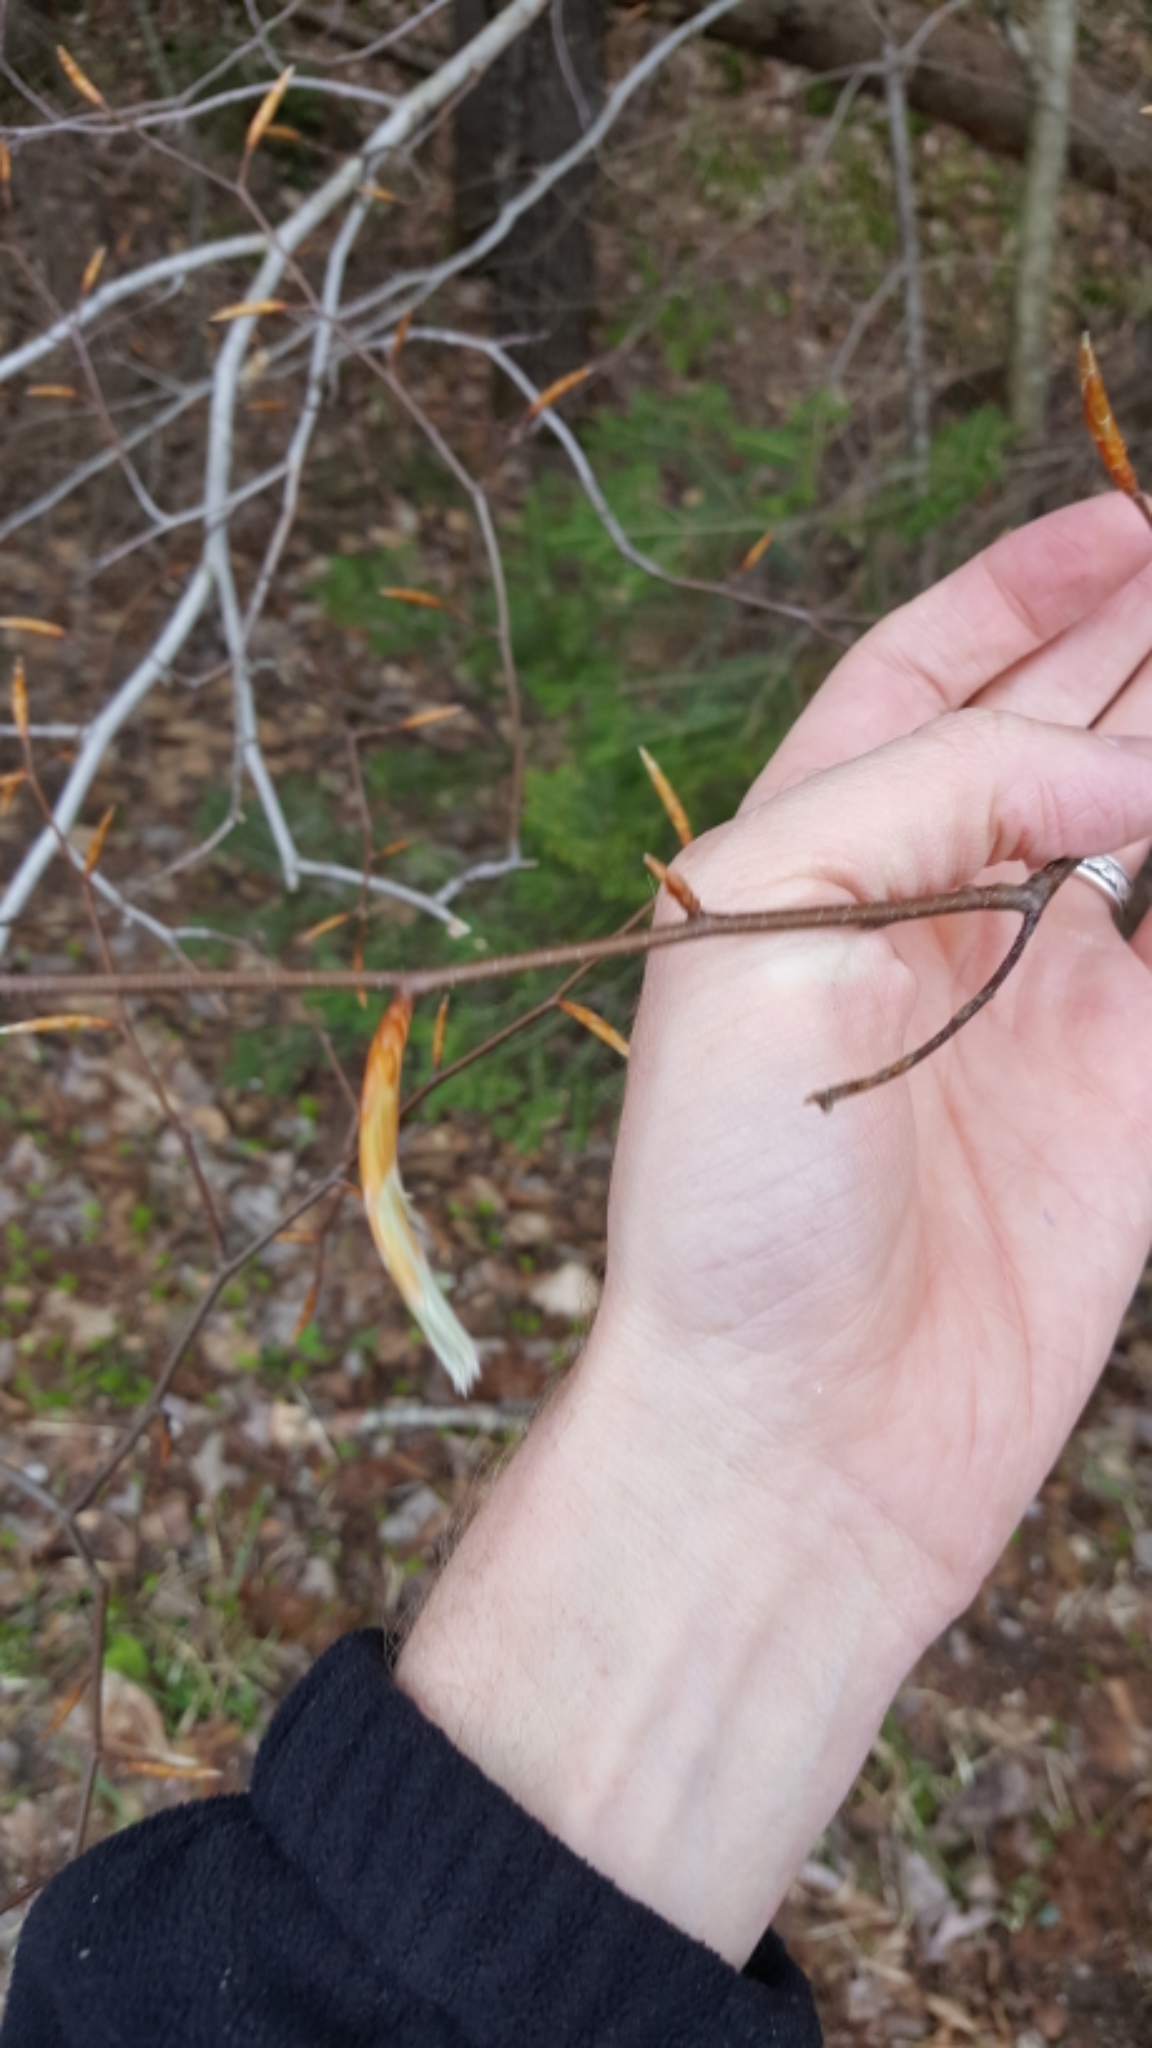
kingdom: Plantae
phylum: Tracheophyta
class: Magnoliopsida
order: Fagales
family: Fagaceae
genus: Fagus
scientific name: Fagus grandifolia
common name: American beech
